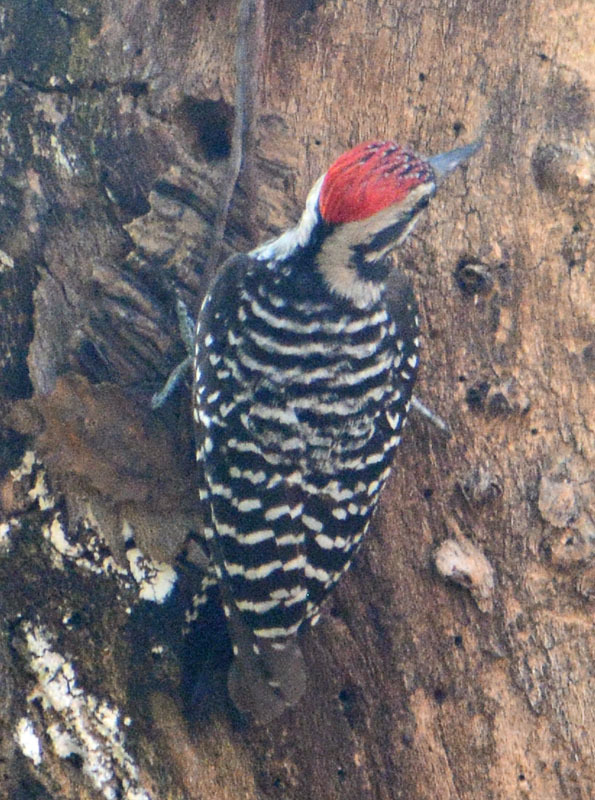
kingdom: Animalia
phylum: Chordata
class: Aves
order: Piciformes
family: Picidae
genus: Dryobates
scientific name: Dryobates scalaris
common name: Ladder-backed woodpecker
